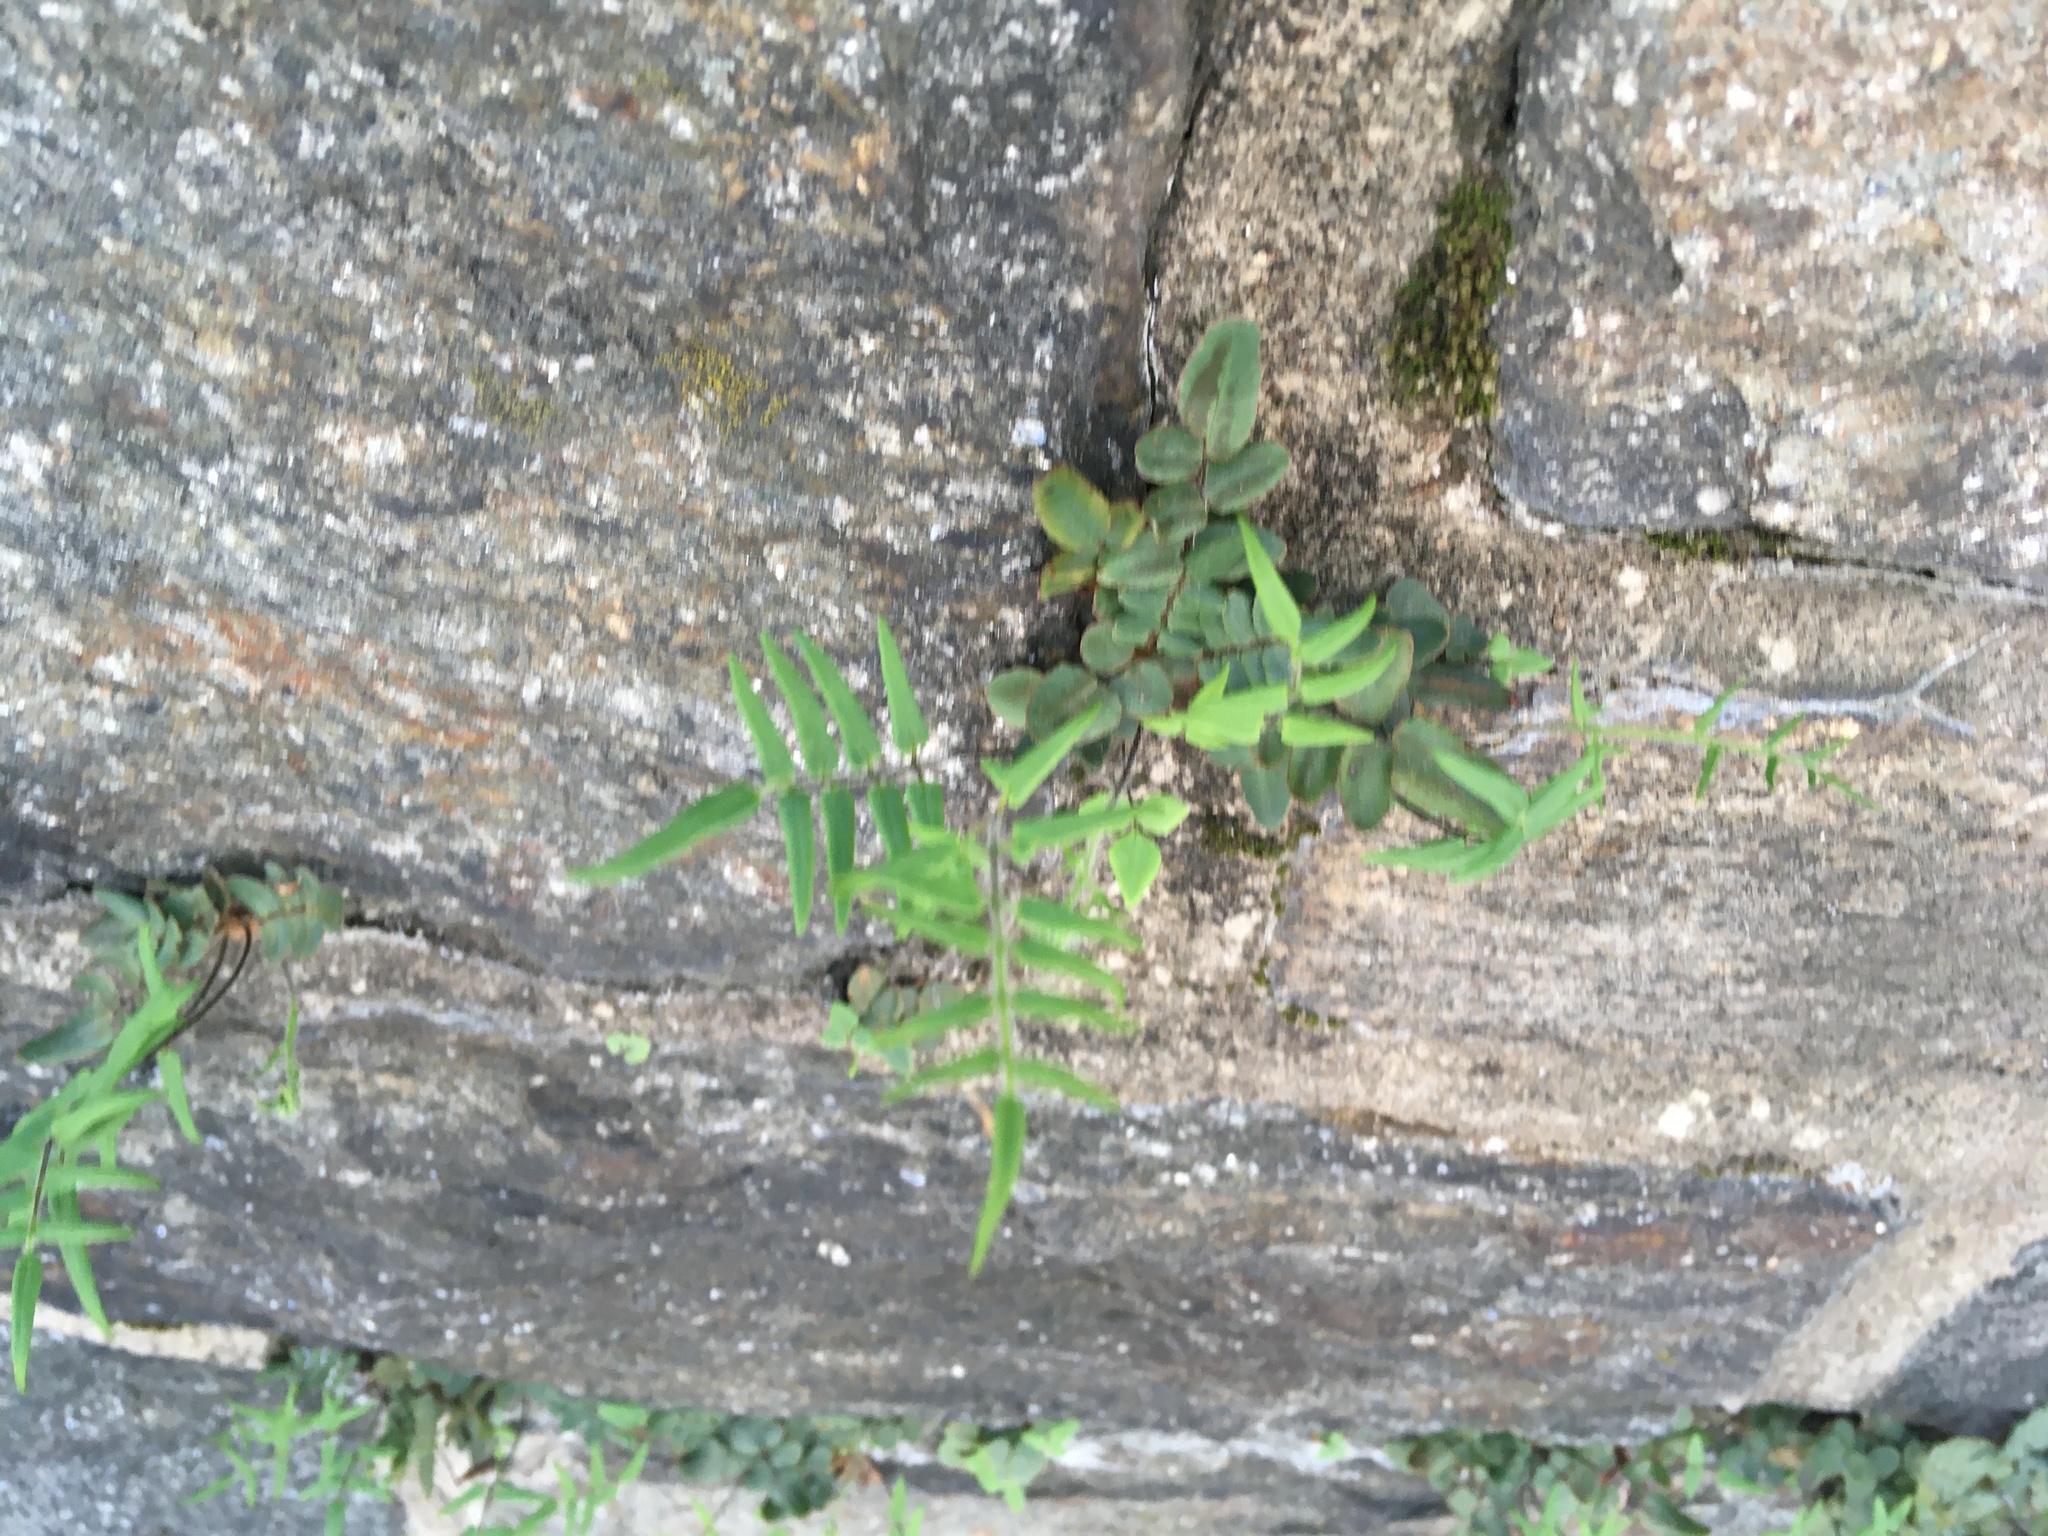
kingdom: Plantae
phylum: Tracheophyta
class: Polypodiopsida
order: Polypodiales
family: Pteridaceae
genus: Pellaea
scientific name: Pellaea atropurpurea
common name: Hairy cliffbrake
